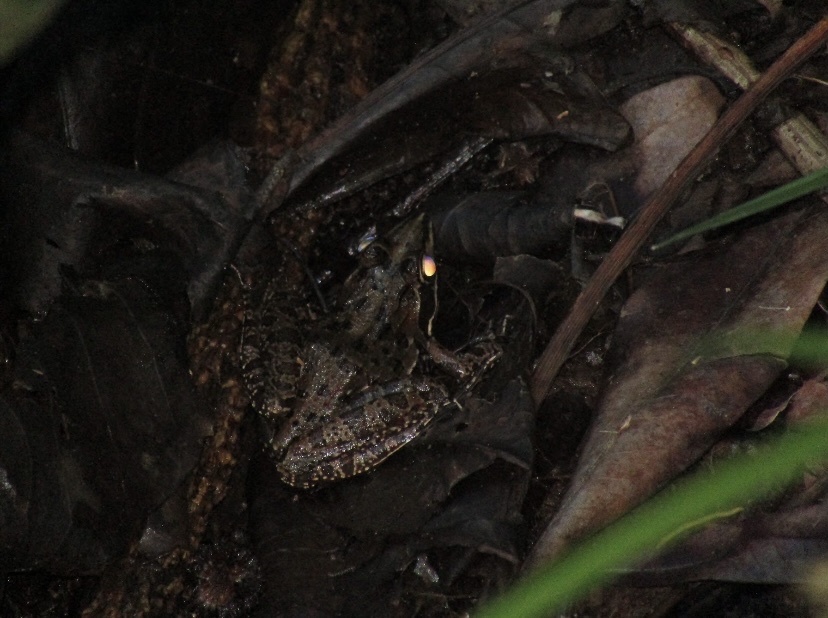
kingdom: Animalia
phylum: Chordata
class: Amphibia
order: Anura
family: Pyxicephalidae
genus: Amietia
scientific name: Amietia delalandii
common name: Delalande's river frog
